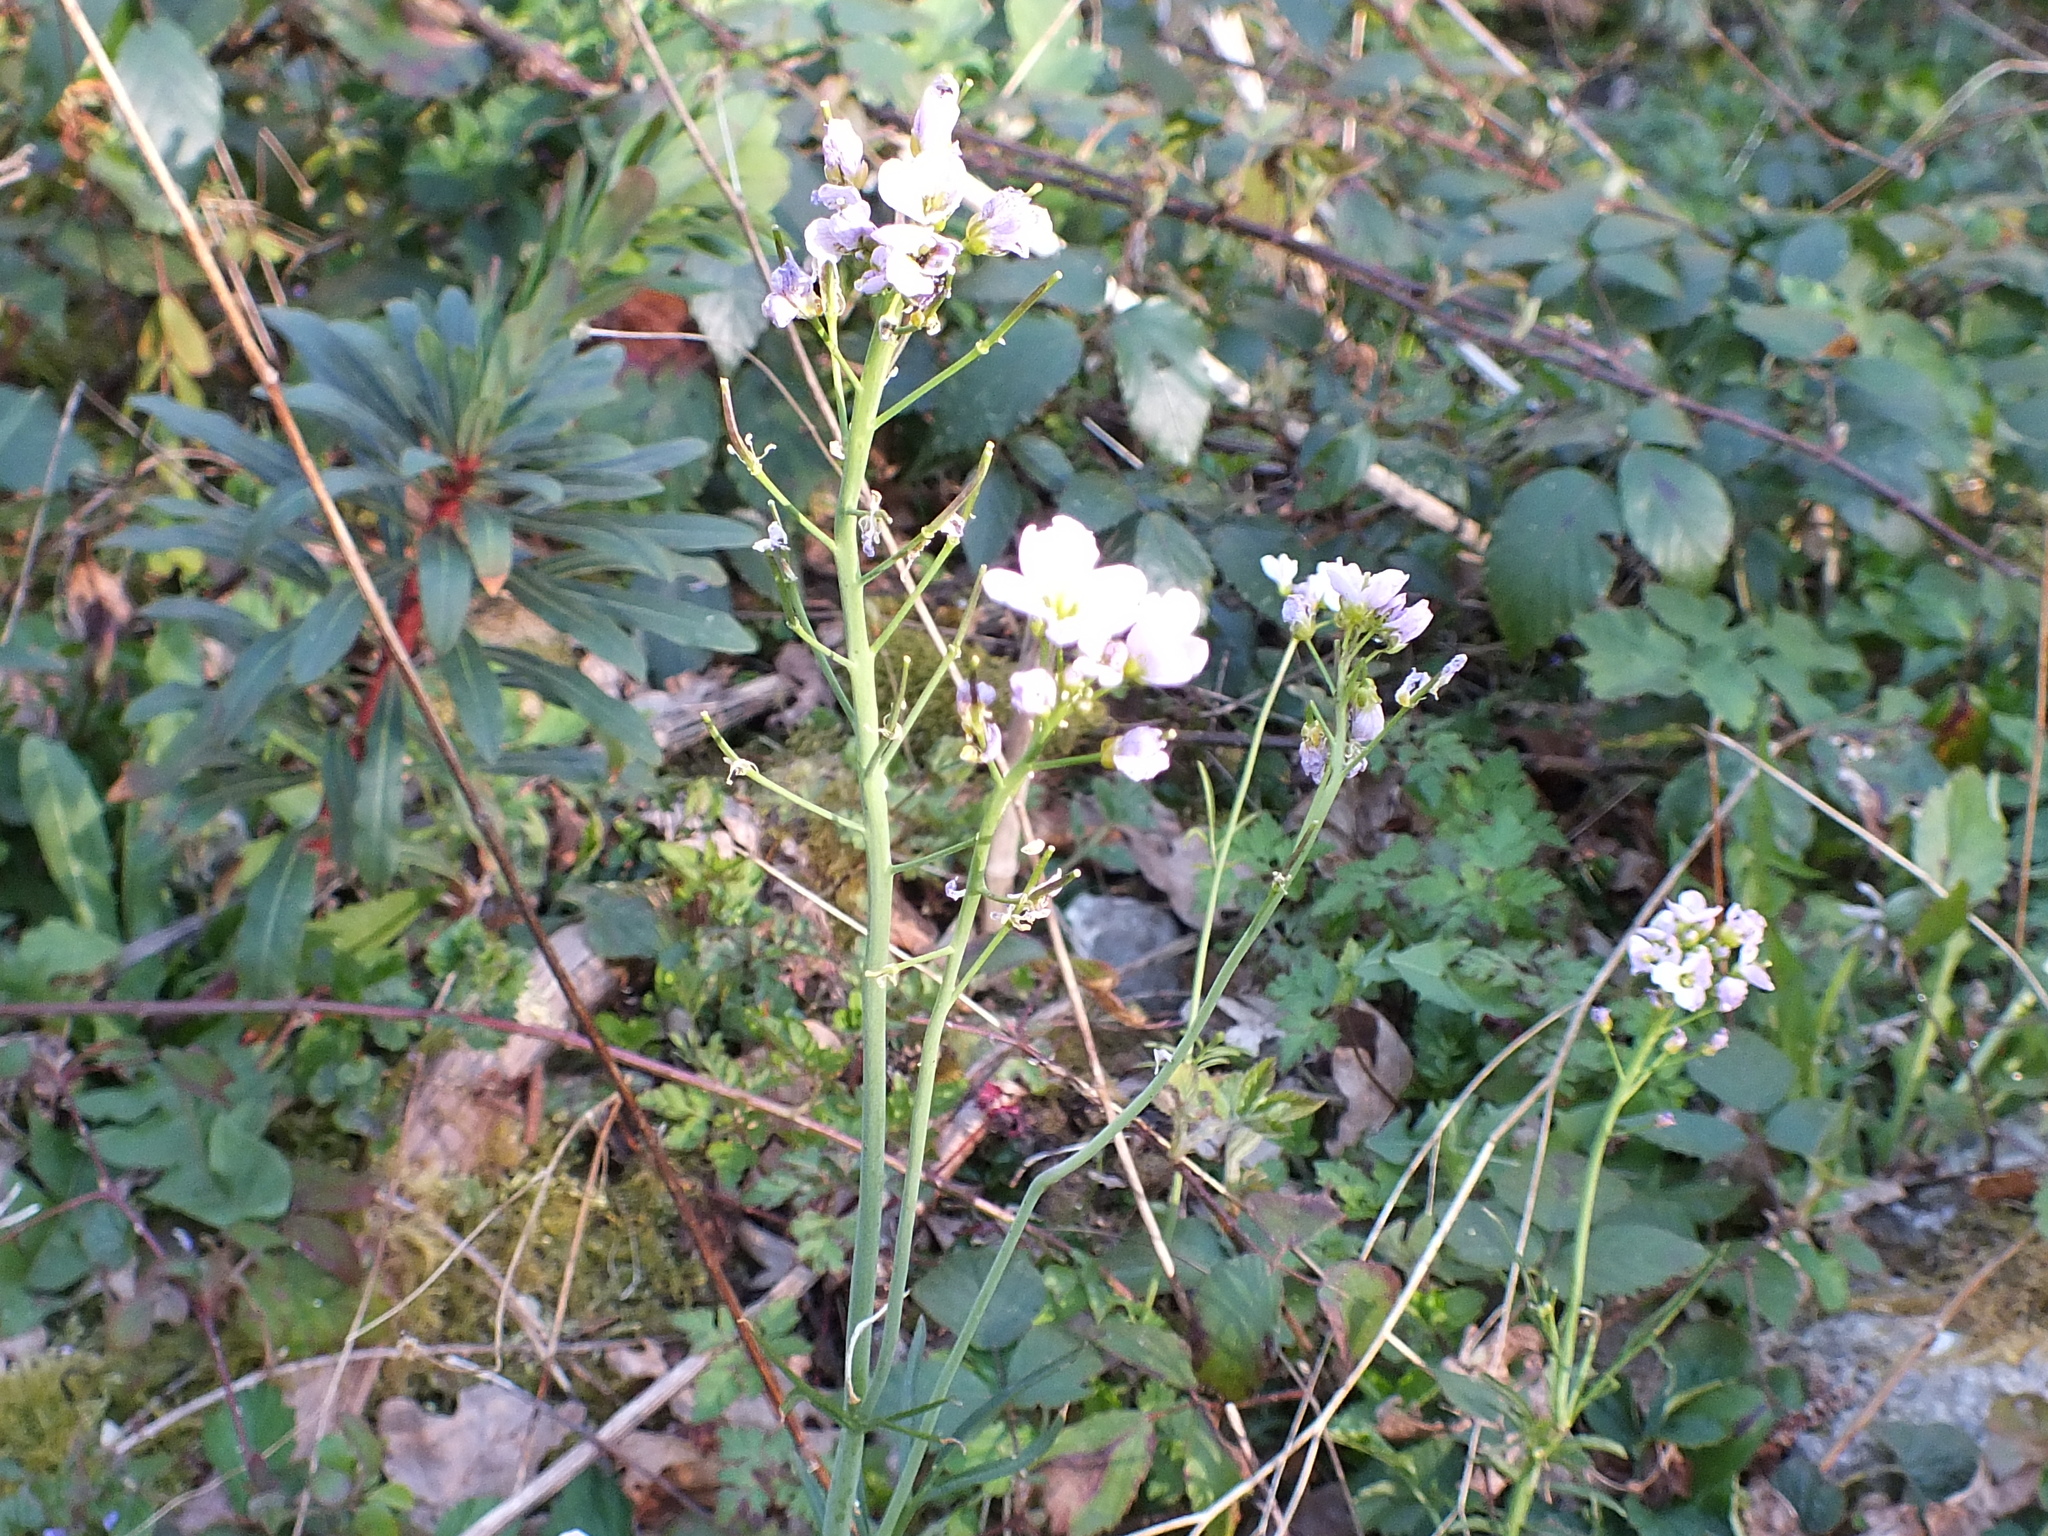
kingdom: Plantae
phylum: Tracheophyta
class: Magnoliopsida
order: Brassicales
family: Brassicaceae
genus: Cardamine
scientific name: Cardamine pratensis
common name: Cuckoo flower
